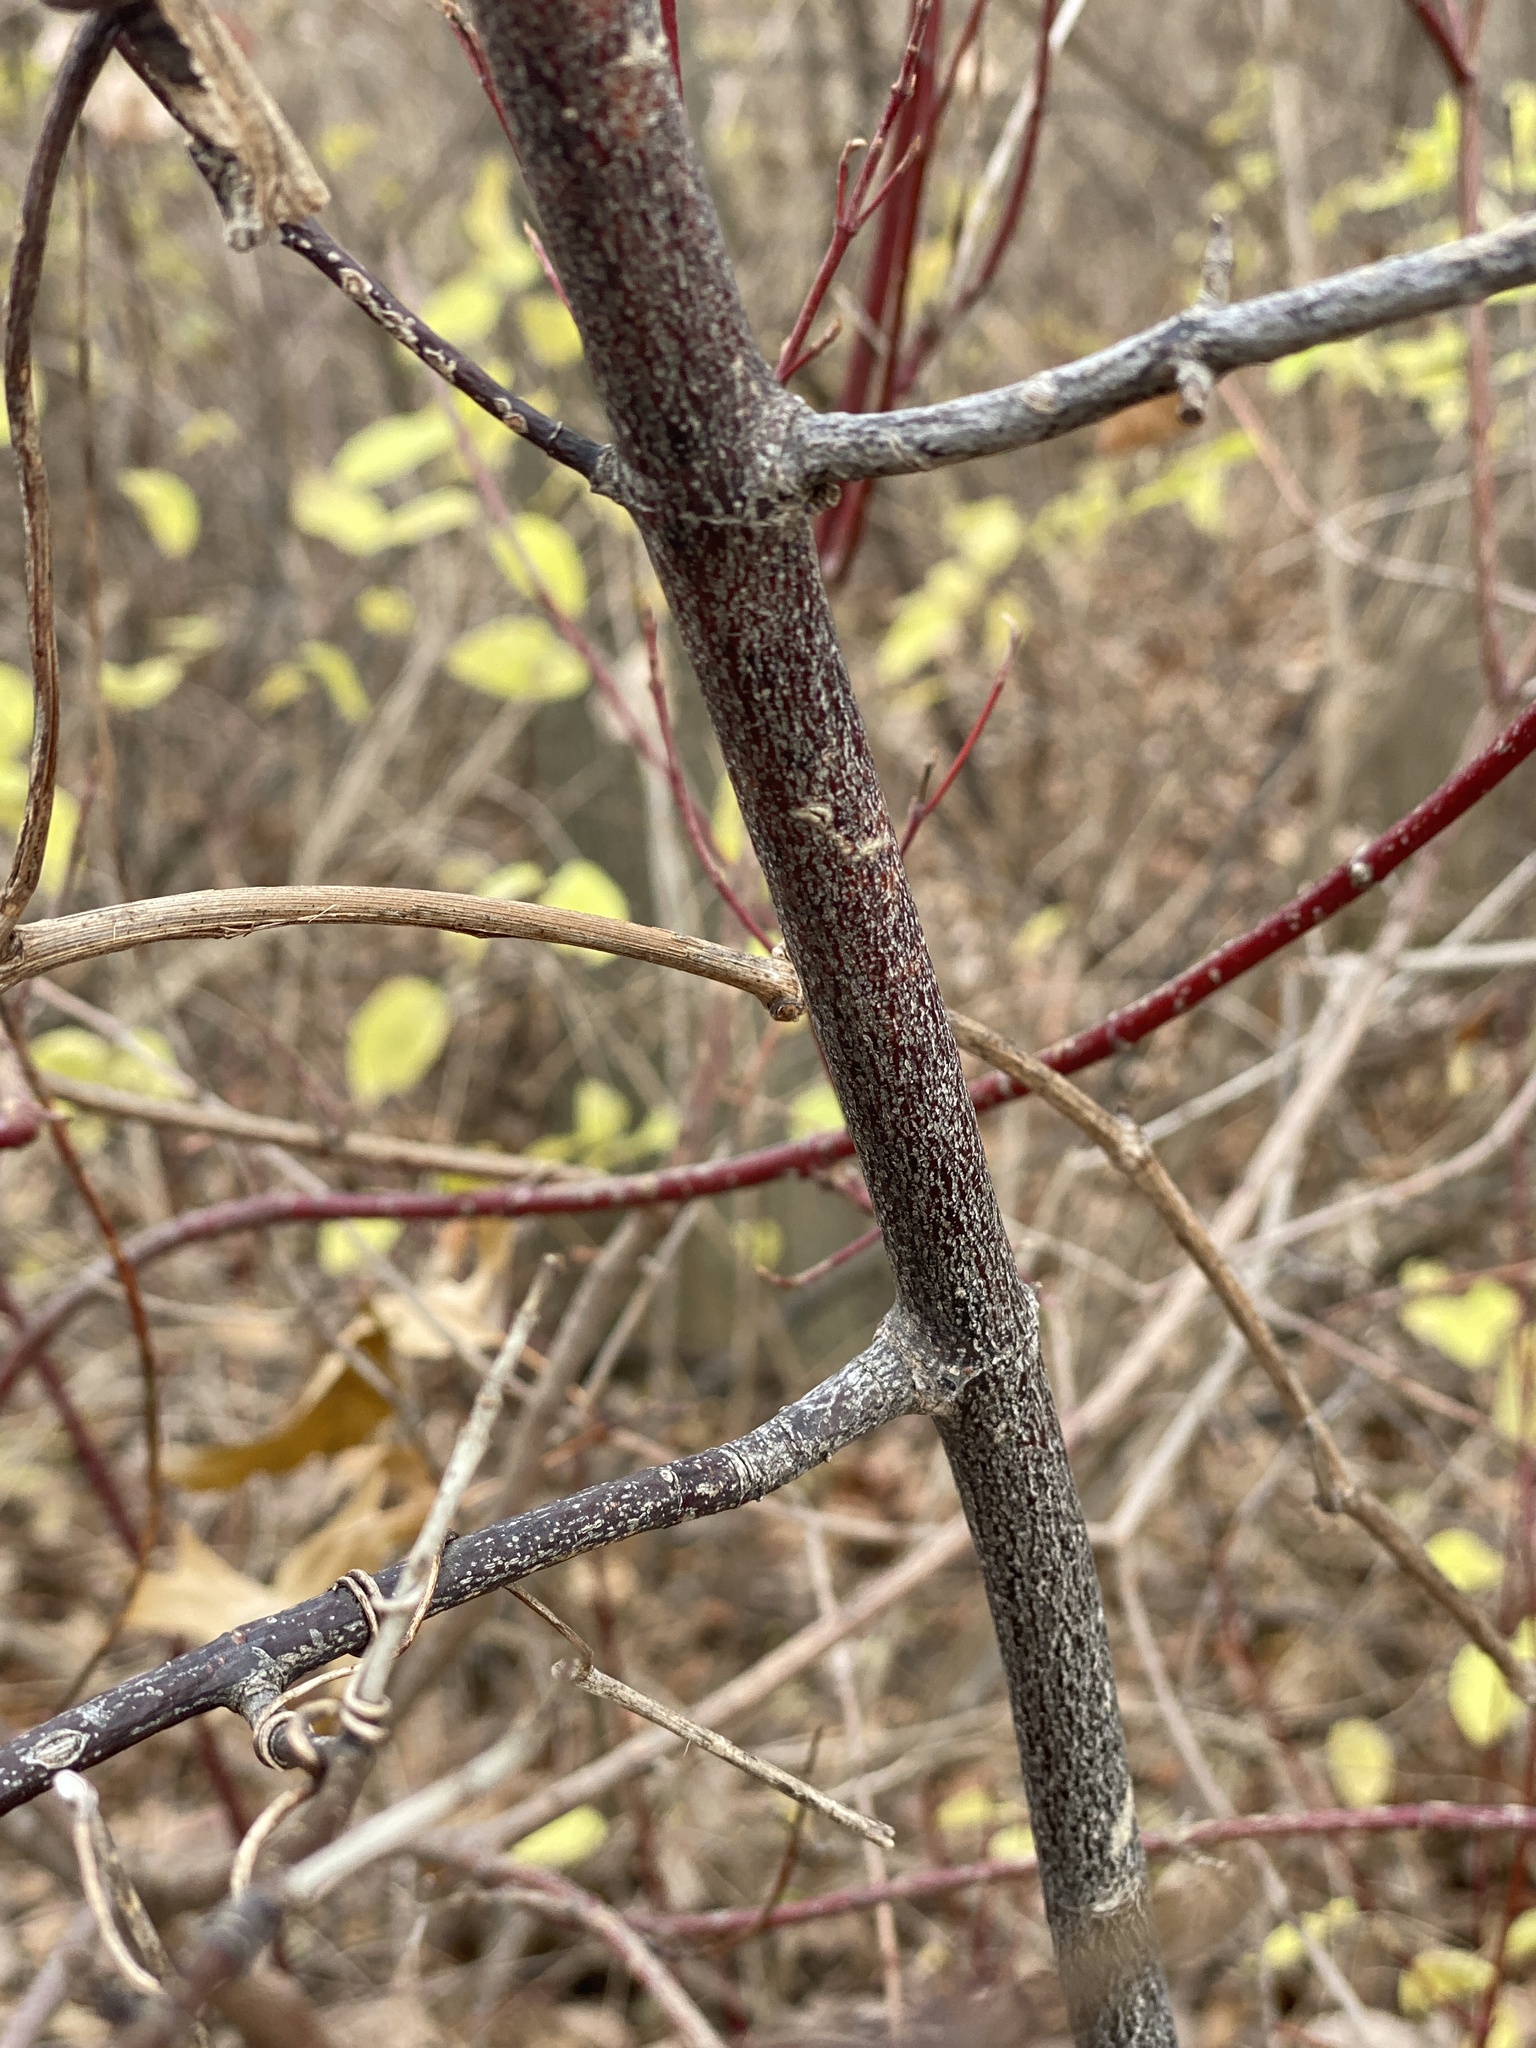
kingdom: Plantae
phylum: Tracheophyta
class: Magnoliopsida
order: Cornales
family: Cornaceae
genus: Cornus
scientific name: Cornus amomum
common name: Silky dogwood
